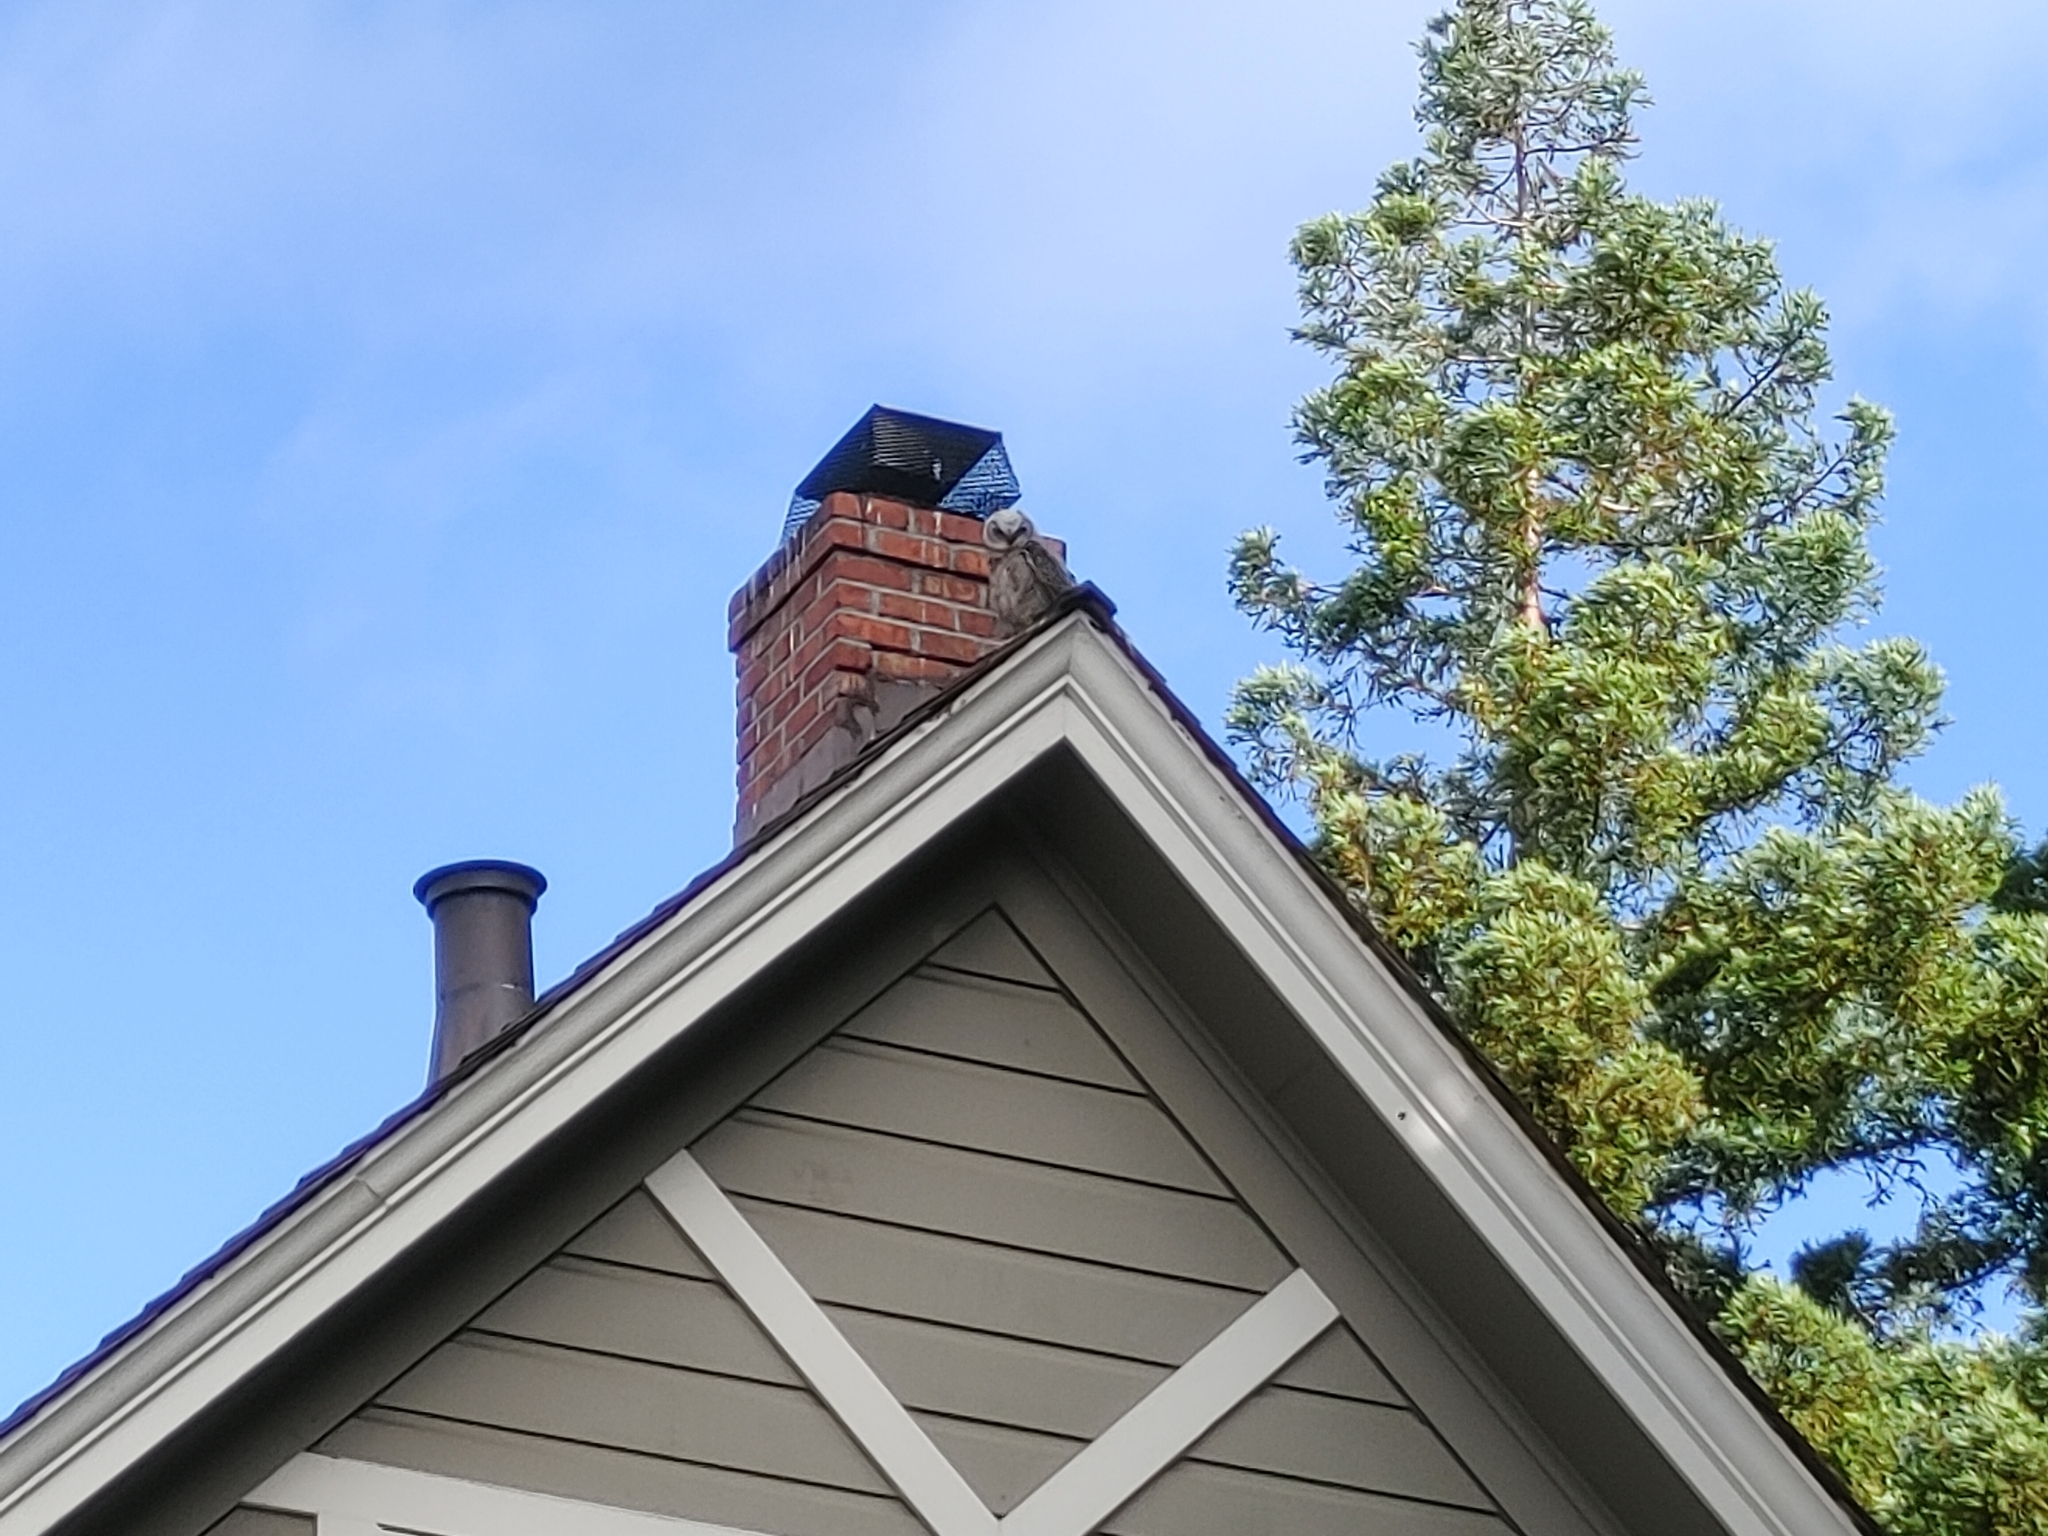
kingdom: Animalia
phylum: Chordata
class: Aves
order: Strigiformes
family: Strigidae
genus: Bubo
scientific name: Bubo virginianus
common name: Great horned owl
